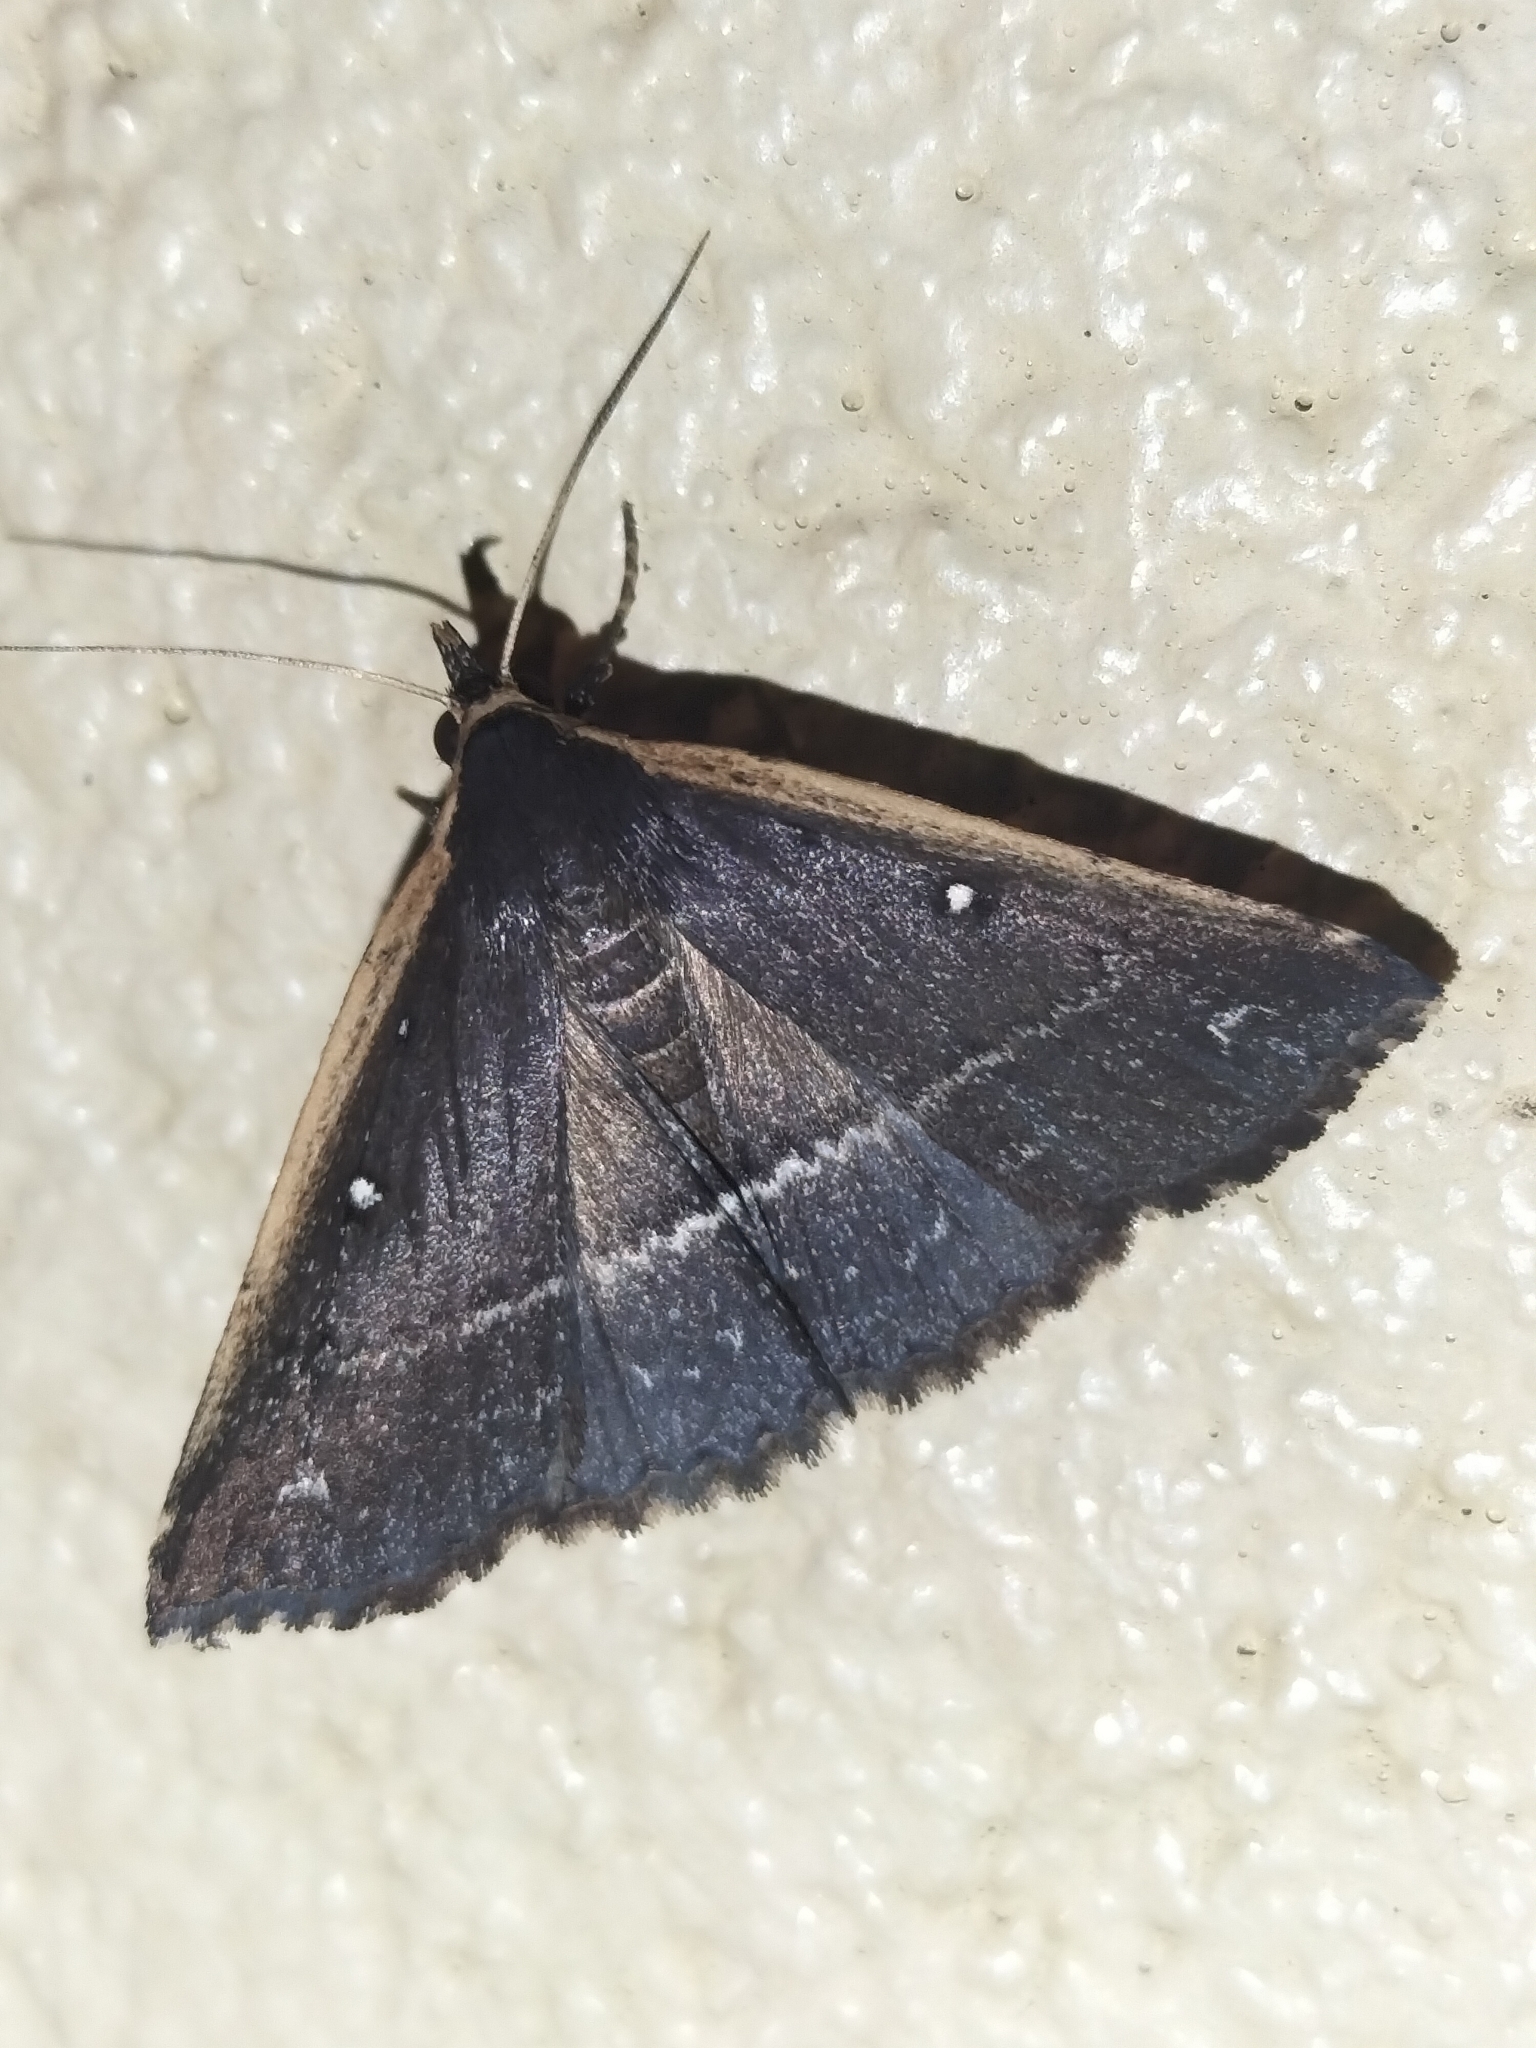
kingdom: Animalia
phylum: Arthropoda
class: Insecta
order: Lepidoptera
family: Erebidae
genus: Adrapsa
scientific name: Adrapsa ablualis
